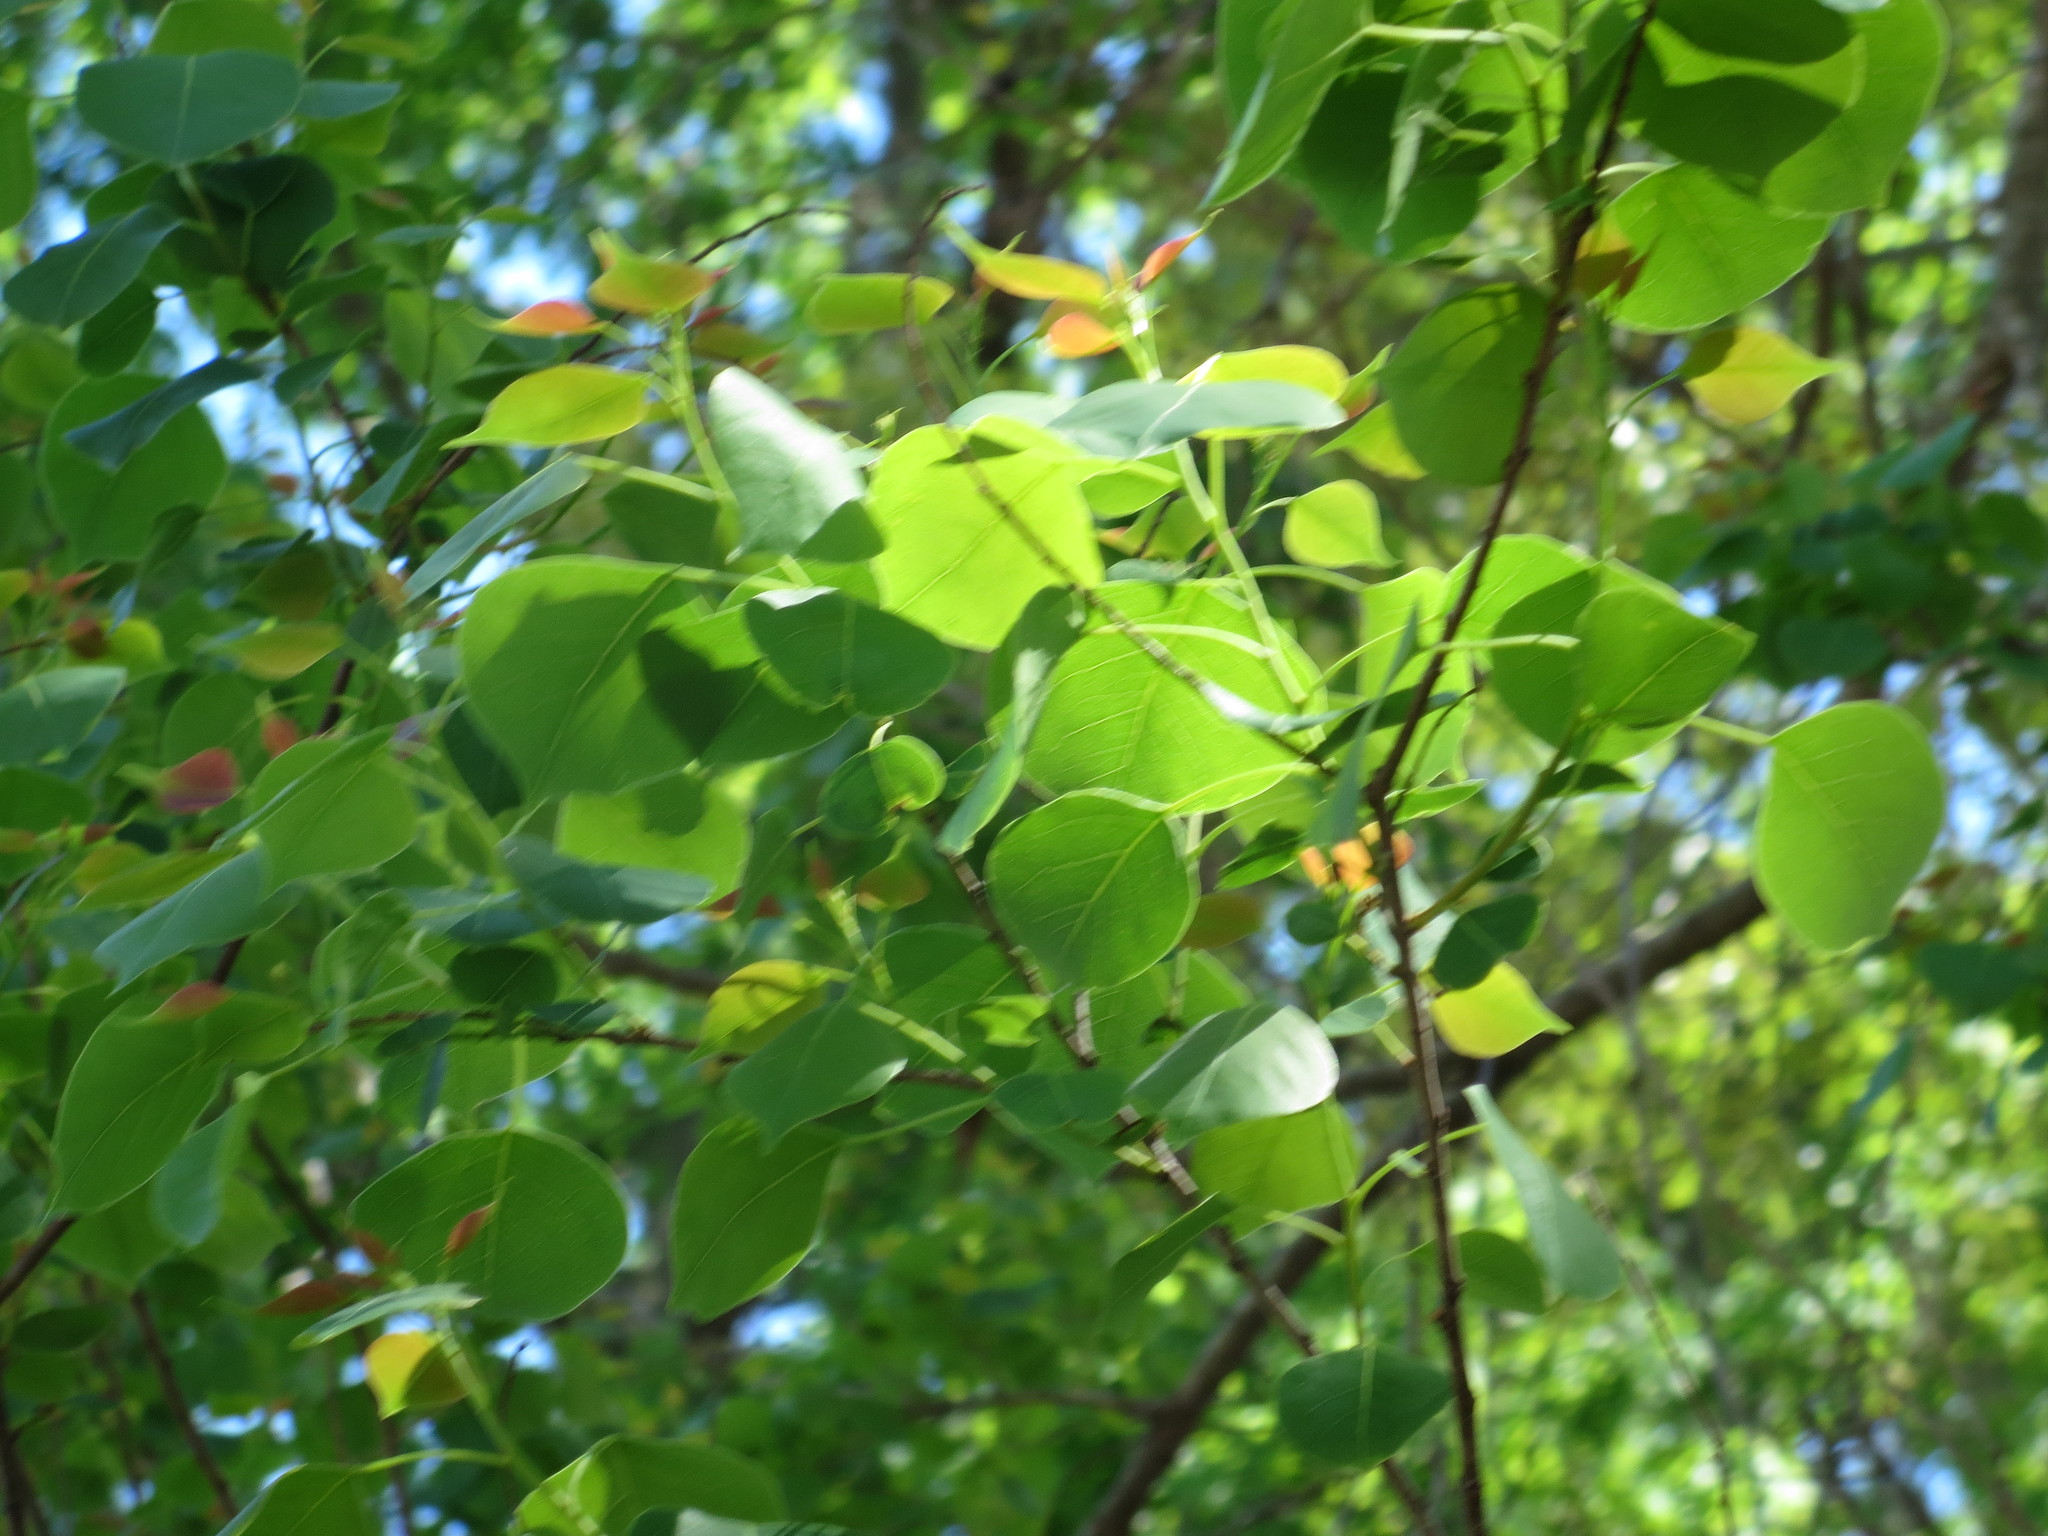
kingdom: Plantae
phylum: Tracheophyta
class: Magnoliopsida
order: Malpighiales
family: Euphorbiaceae
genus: Triadica
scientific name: Triadica sebifera
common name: Chinese tallow
